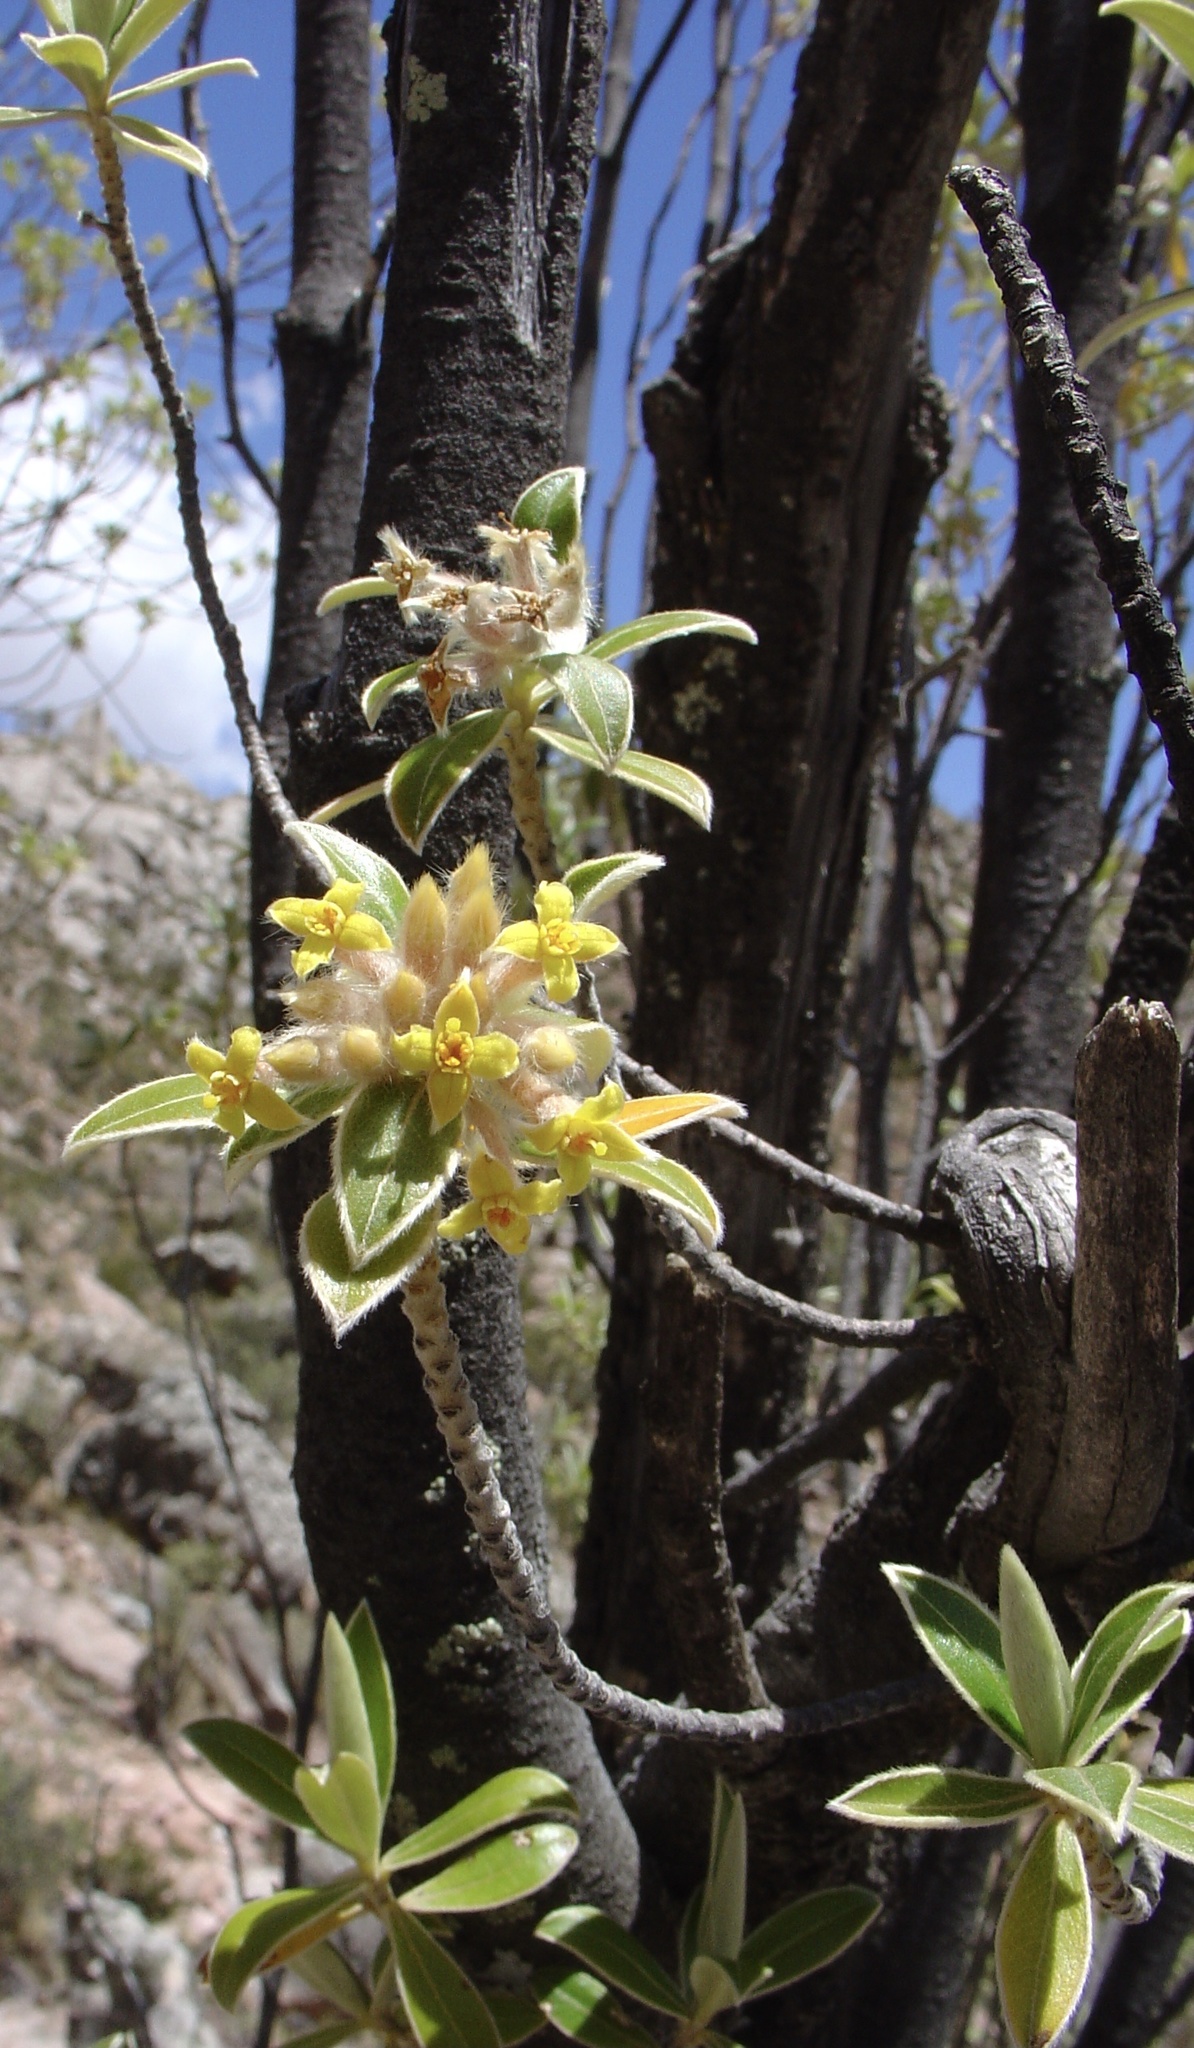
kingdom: Plantae
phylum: Tracheophyta
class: Magnoliopsida
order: Malvales
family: Thymelaeaceae
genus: Ovidia
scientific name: Ovidia sericea
